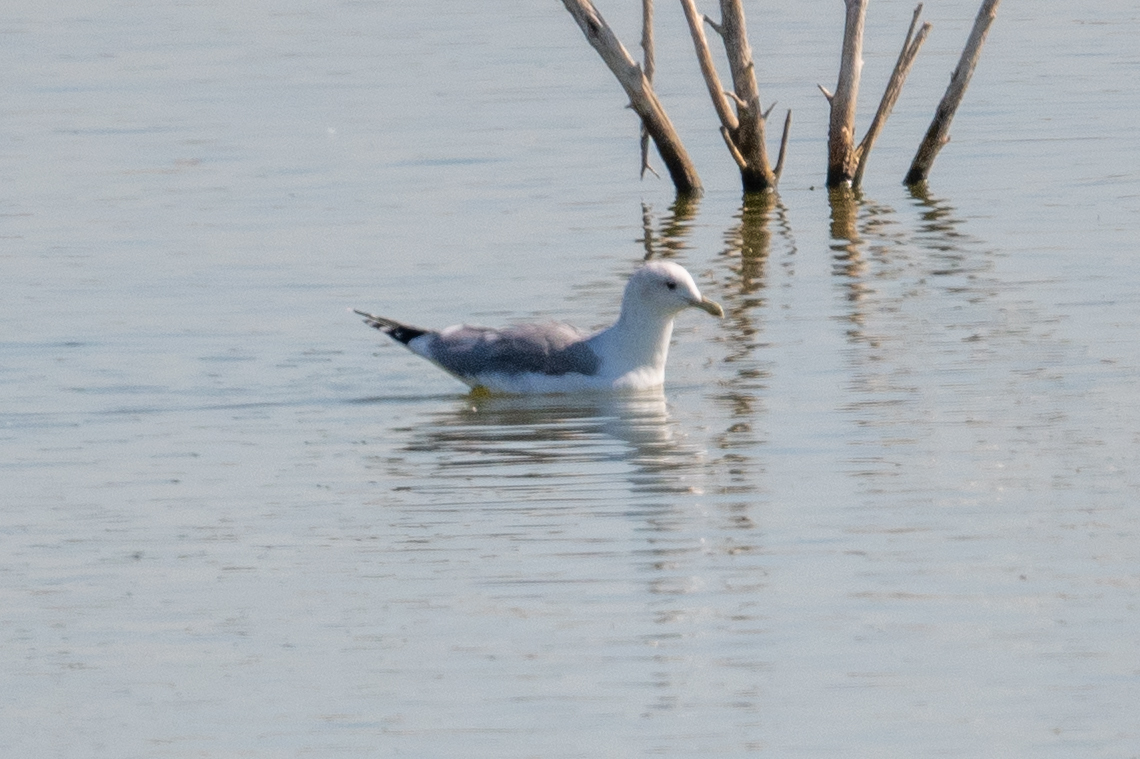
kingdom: Animalia
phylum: Chordata
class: Aves
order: Charadriiformes
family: Laridae
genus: Larus
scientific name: Larus californicus
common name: California gull
